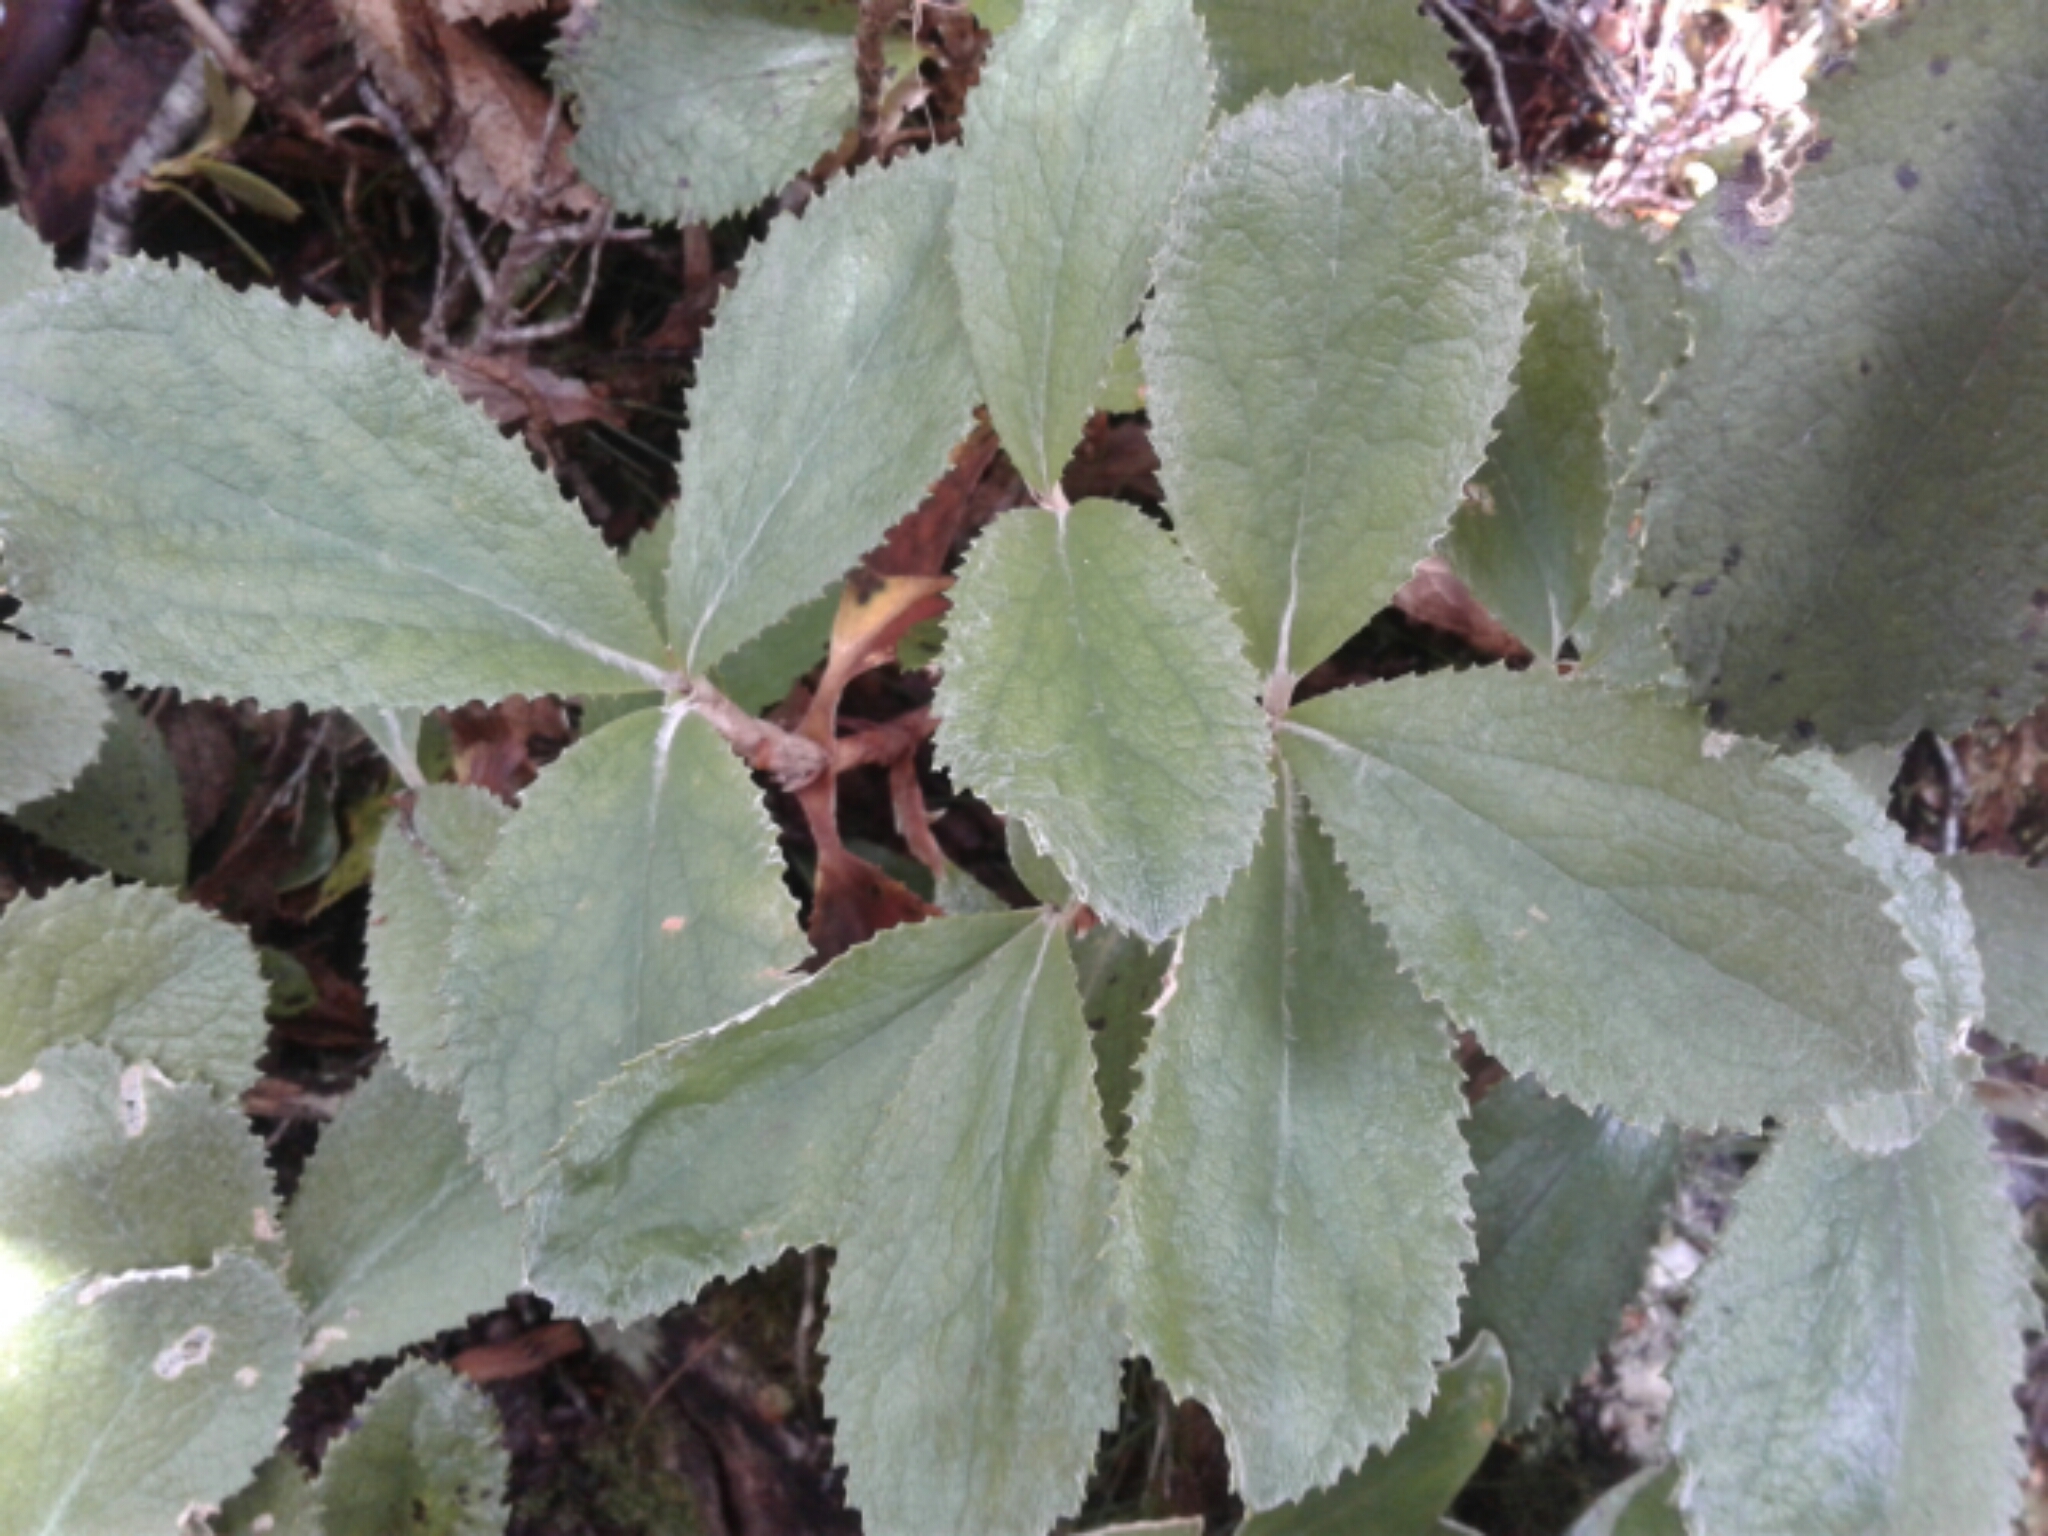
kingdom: Plantae
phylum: Tracheophyta
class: Magnoliopsida
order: Asterales
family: Asteraceae
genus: Macrolearia
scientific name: Macrolearia colensoi
